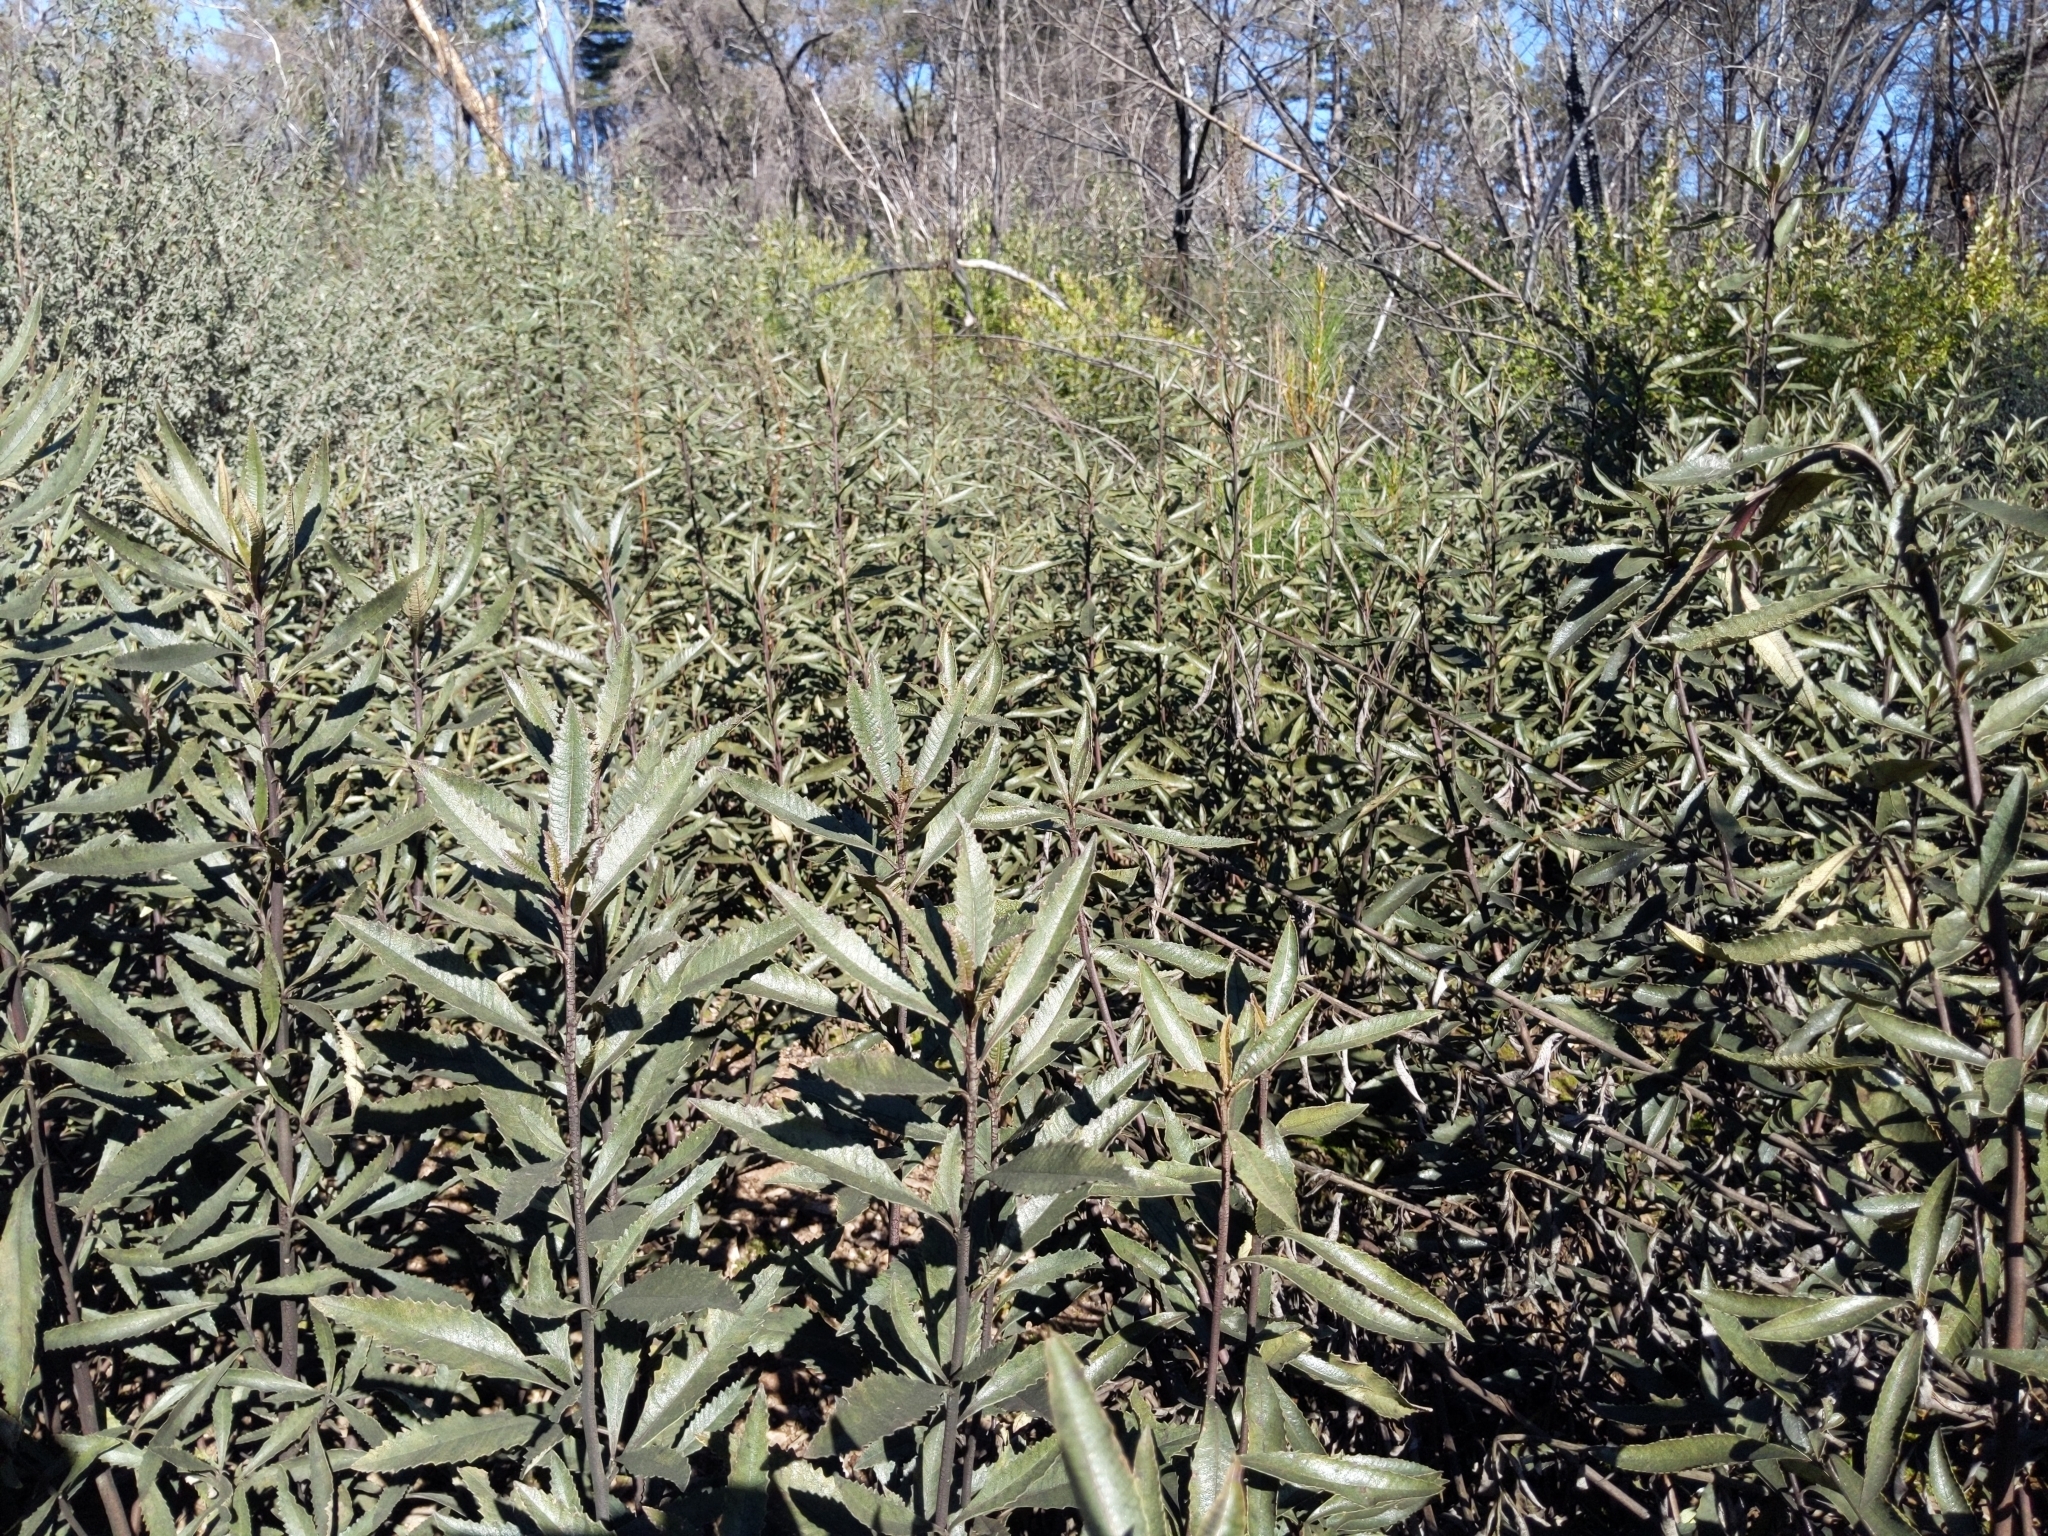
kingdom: Plantae
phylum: Tracheophyta
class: Magnoliopsida
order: Boraginales
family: Namaceae
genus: Eriodictyon
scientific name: Eriodictyon californicum
